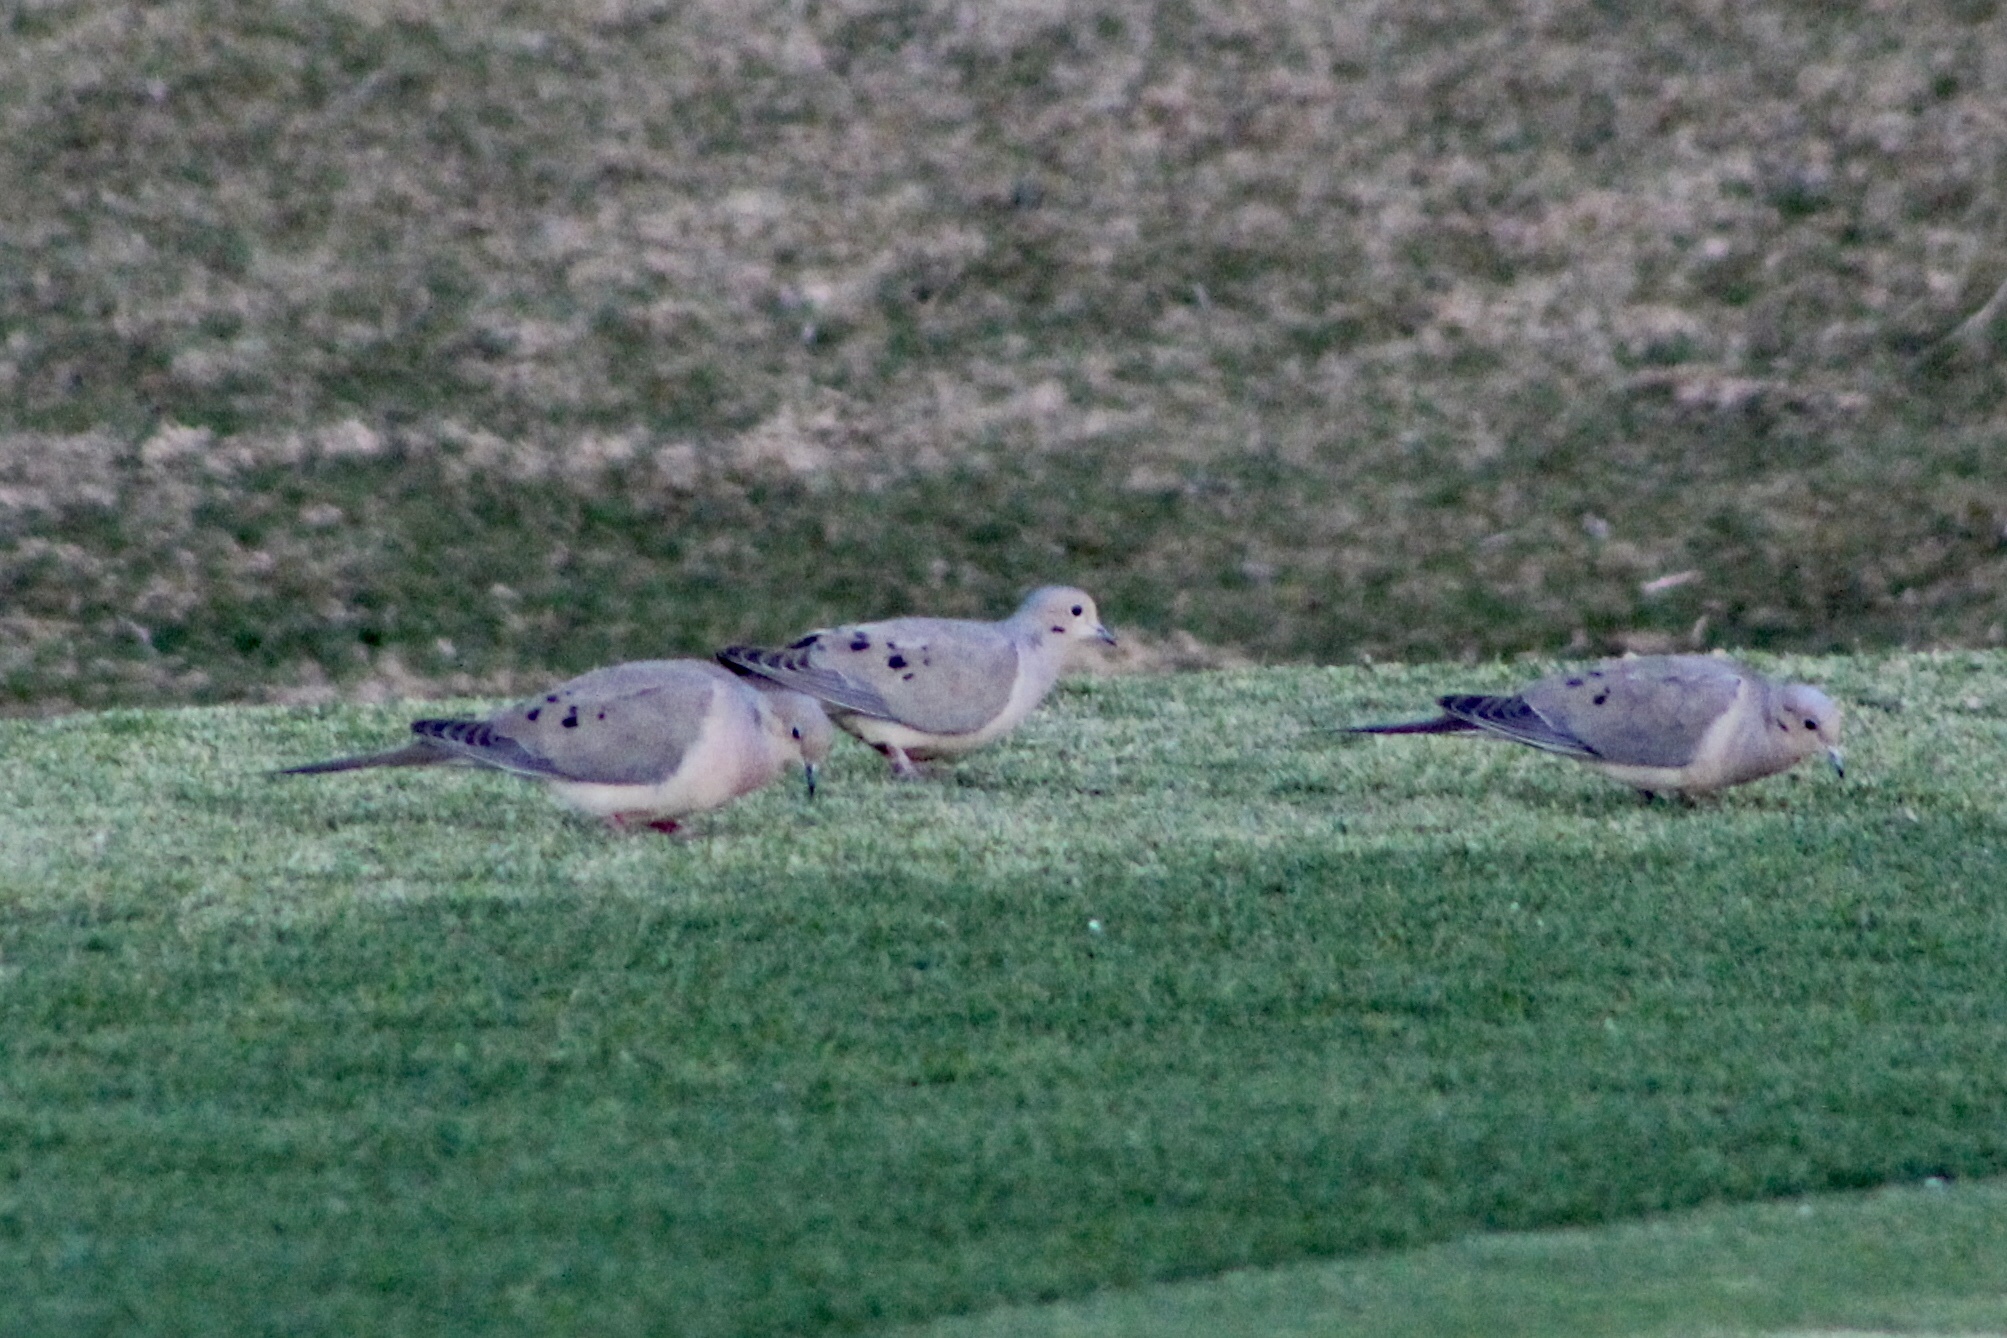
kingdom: Animalia
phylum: Chordata
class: Aves
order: Columbiformes
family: Columbidae
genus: Zenaida
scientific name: Zenaida macroura
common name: Mourning dove
